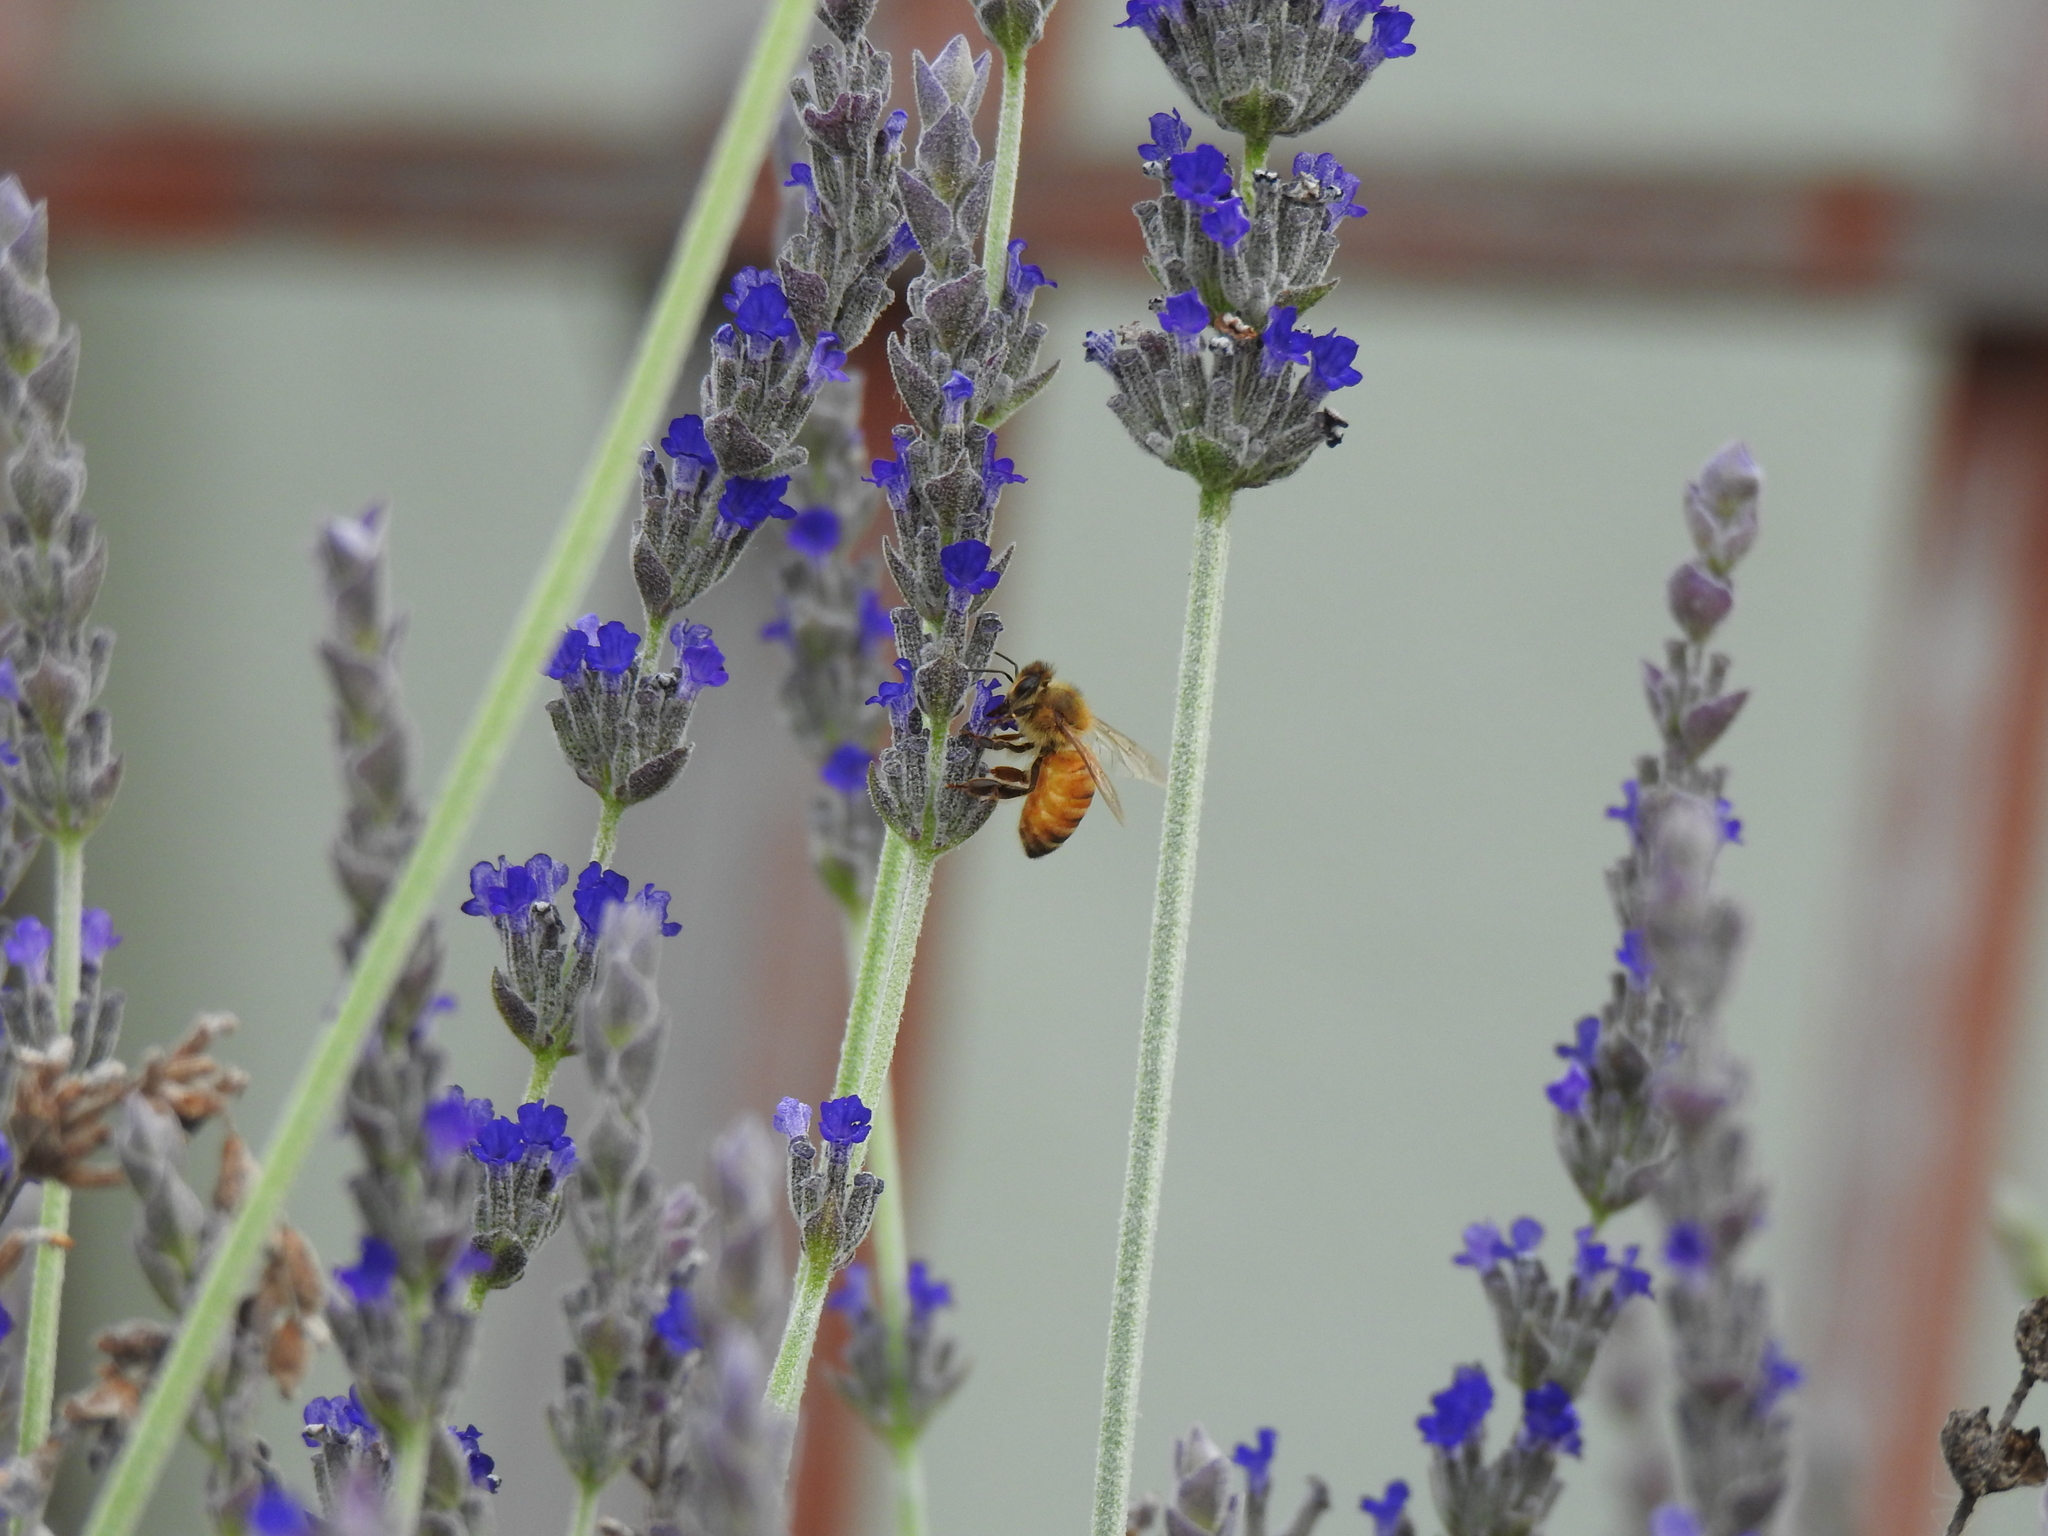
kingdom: Animalia
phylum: Arthropoda
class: Insecta
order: Hymenoptera
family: Apidae
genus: Apis
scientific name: Apis mellifera
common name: Honey bee
